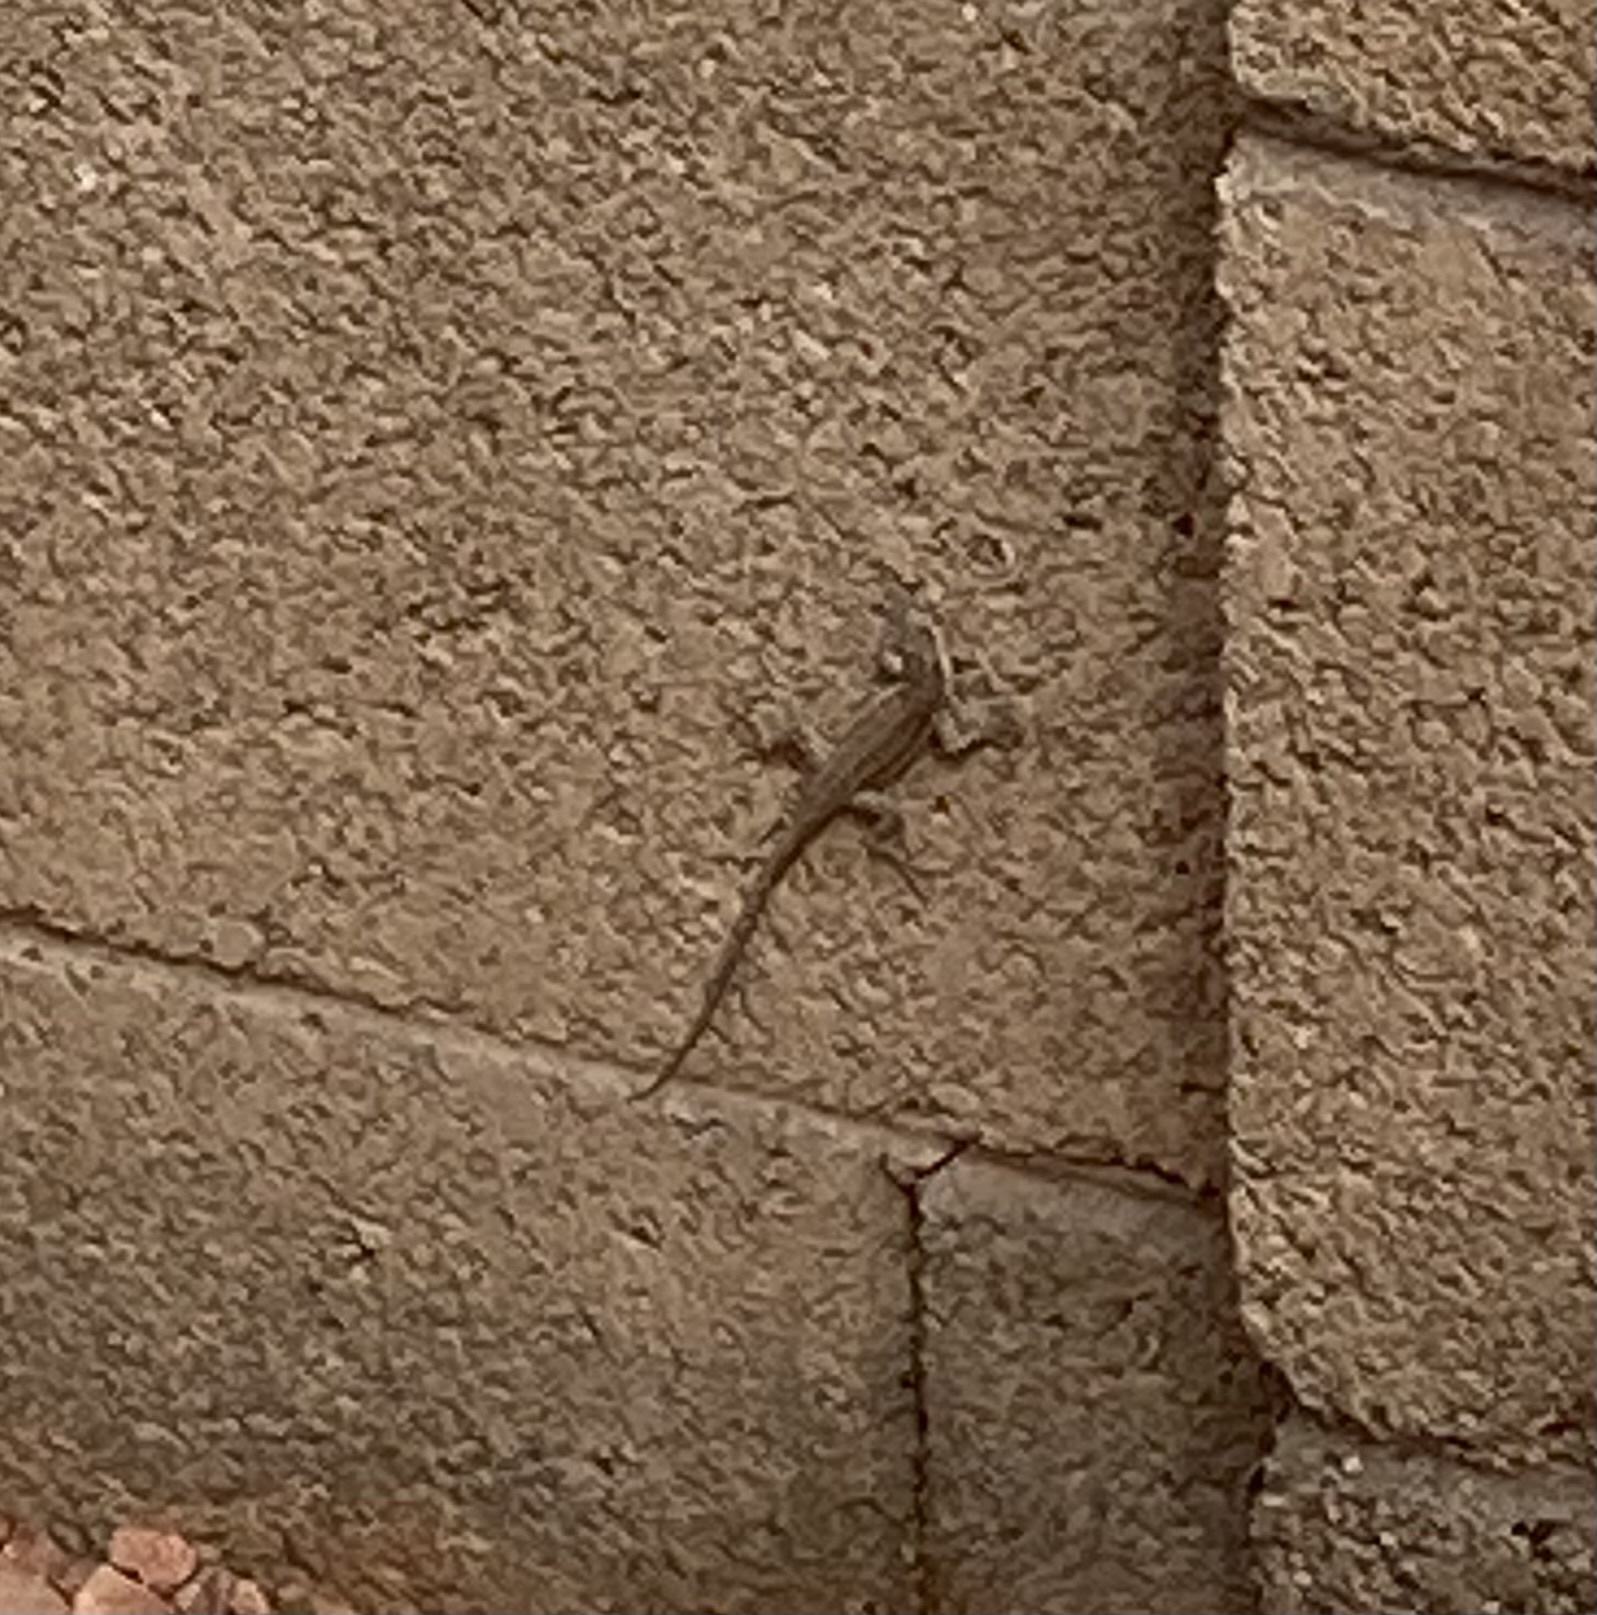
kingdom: Animalia
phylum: Chordata
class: Squamata
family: Phrynosomatidae
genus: Urosaurus
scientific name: Urosaurus ornatus
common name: Ornate tree lizard
